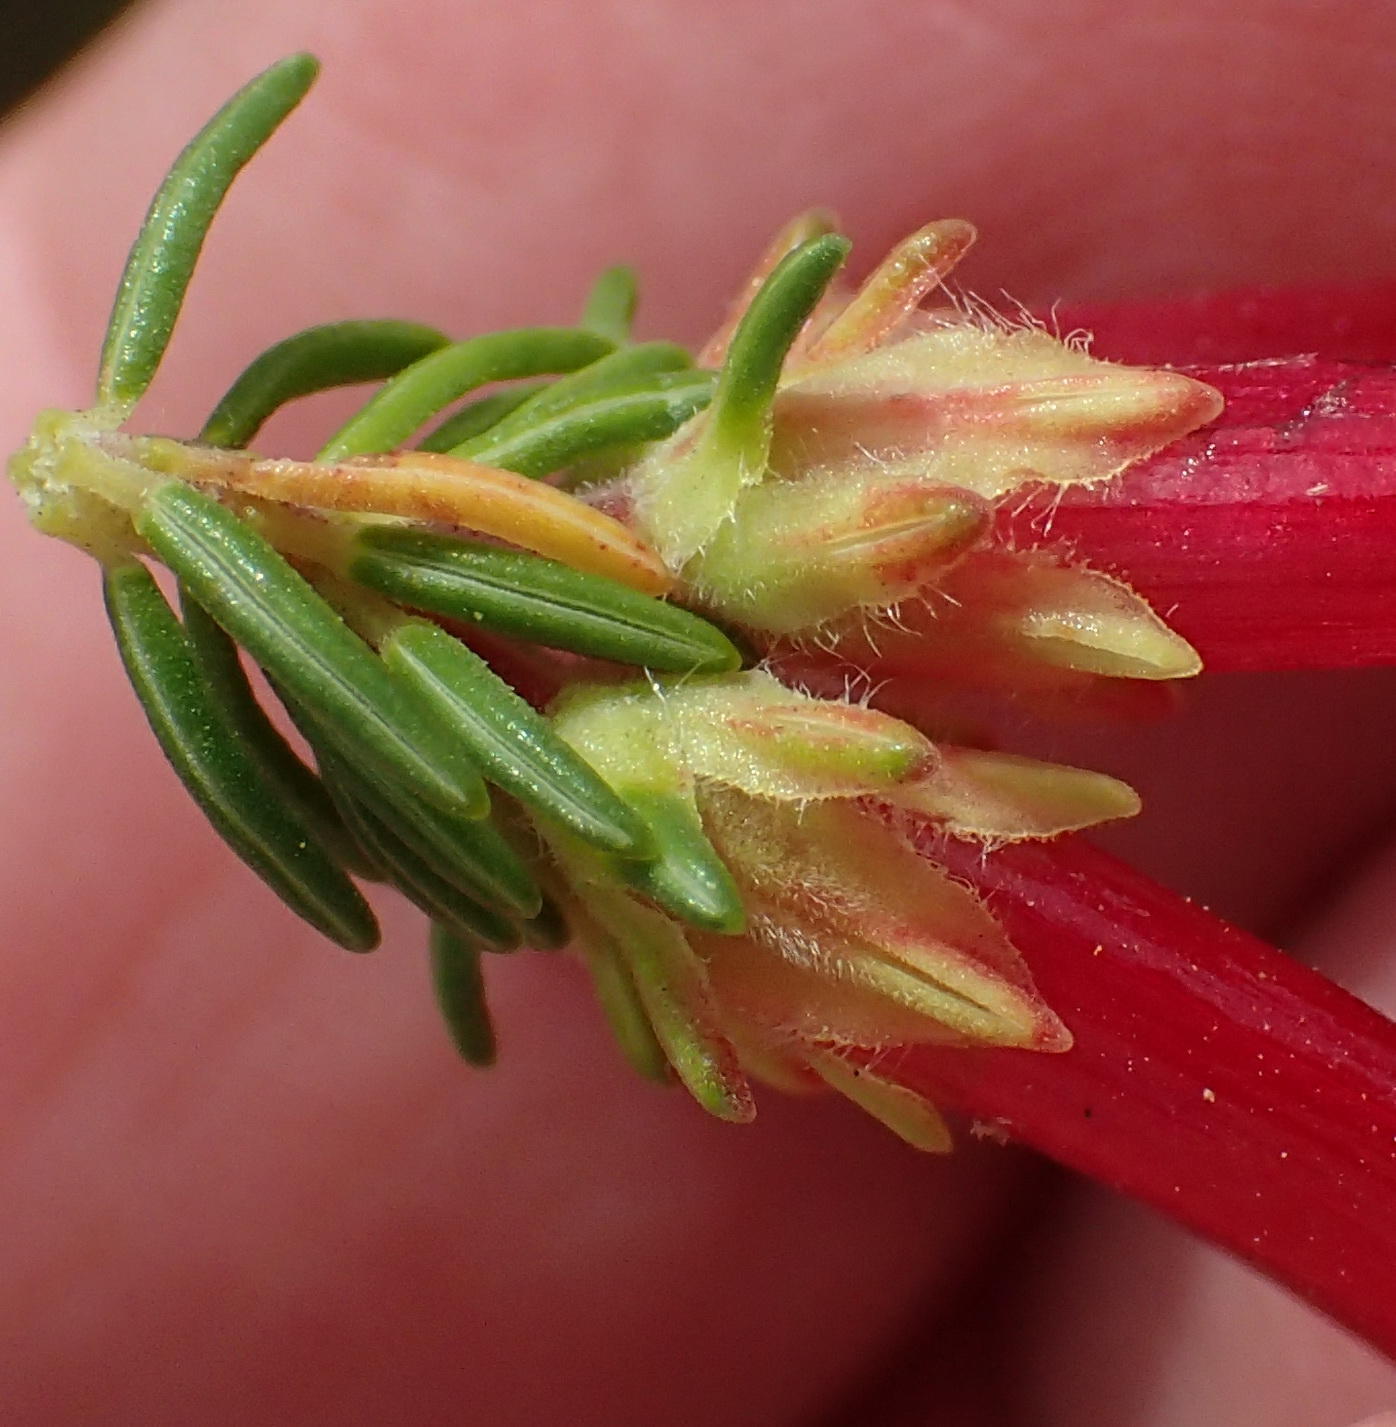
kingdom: Plantae
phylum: Tracheophyta
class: Magnoliopsida
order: Ericales
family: Ericaceae
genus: Erica
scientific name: Erica unicolor
